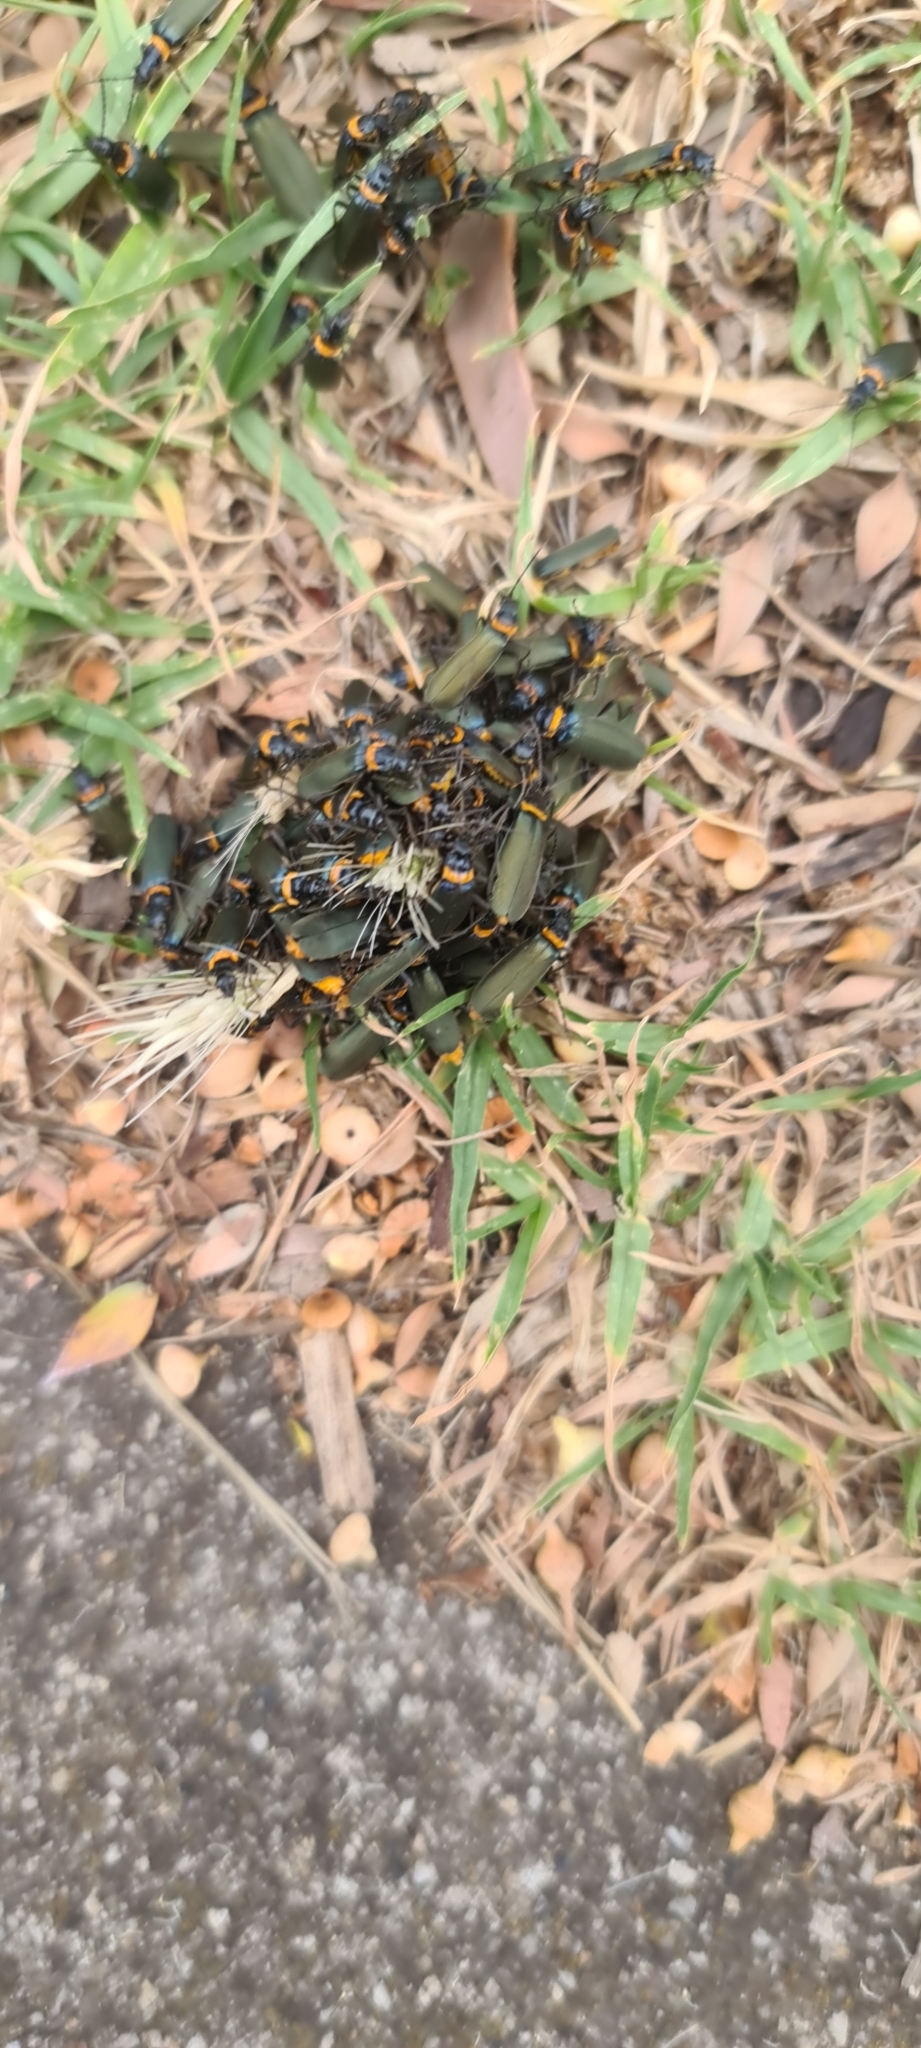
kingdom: Animalia
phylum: Arthropoda
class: Insecta
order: Coleoptera
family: Cantharidae
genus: Chauliognathus
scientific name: Chauliognathus
